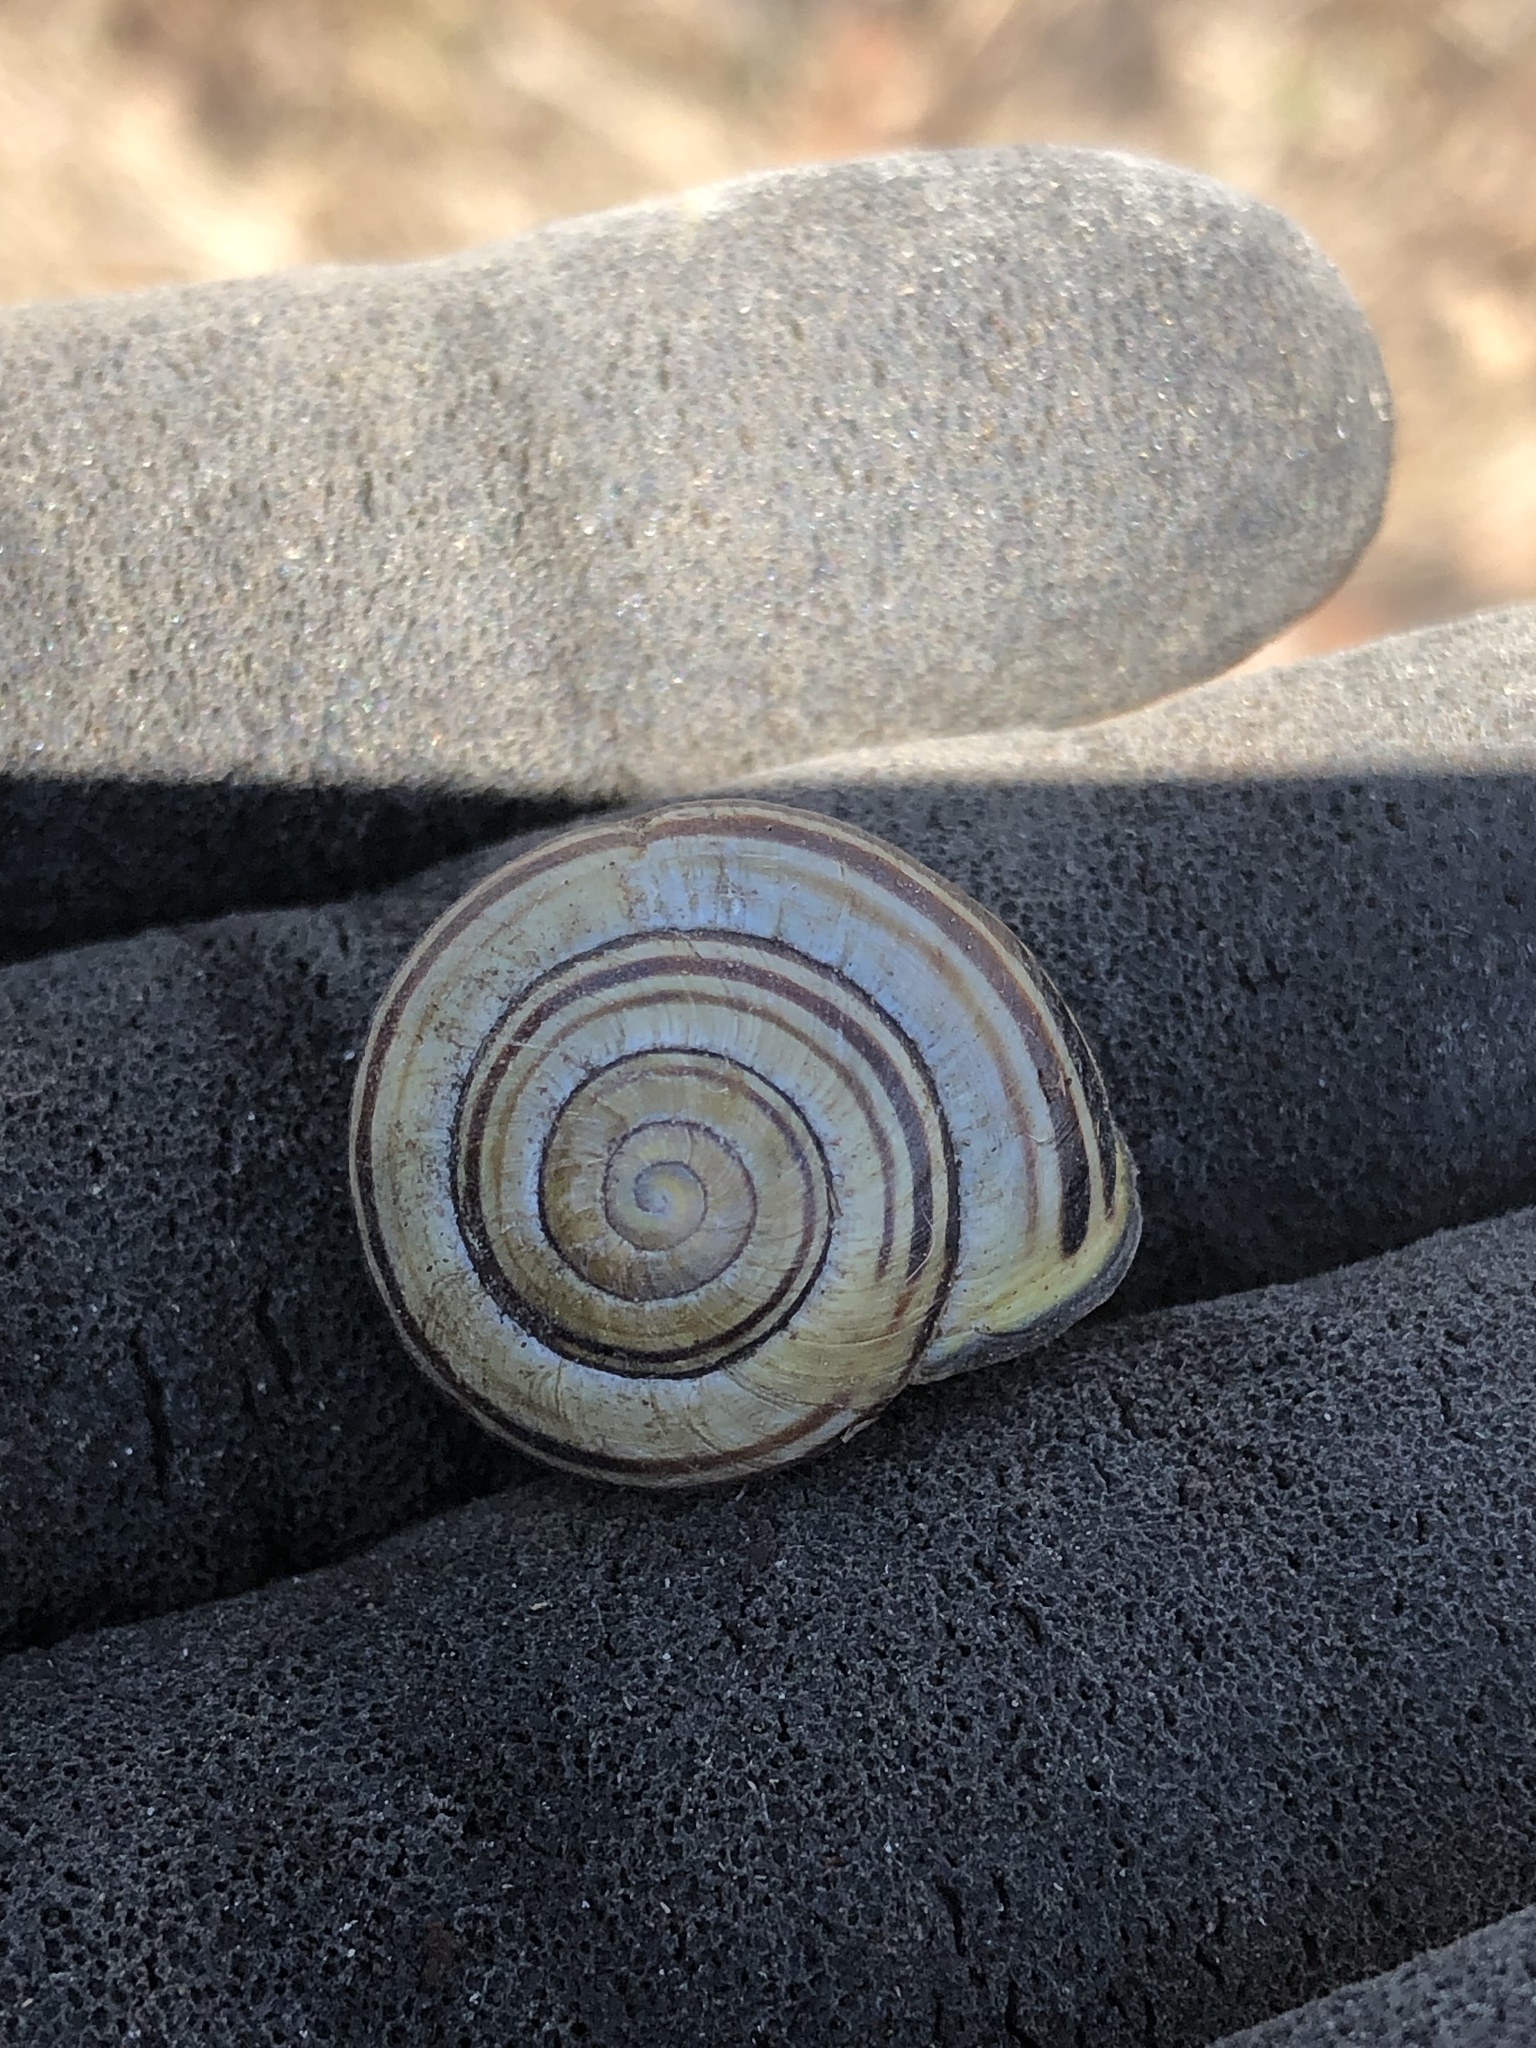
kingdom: Animalia
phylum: Mollusca
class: Gastropoda
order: Stylommatophora
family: Helicidae
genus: Cepaea
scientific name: Cepaea nemoralis
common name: Grovesnail
